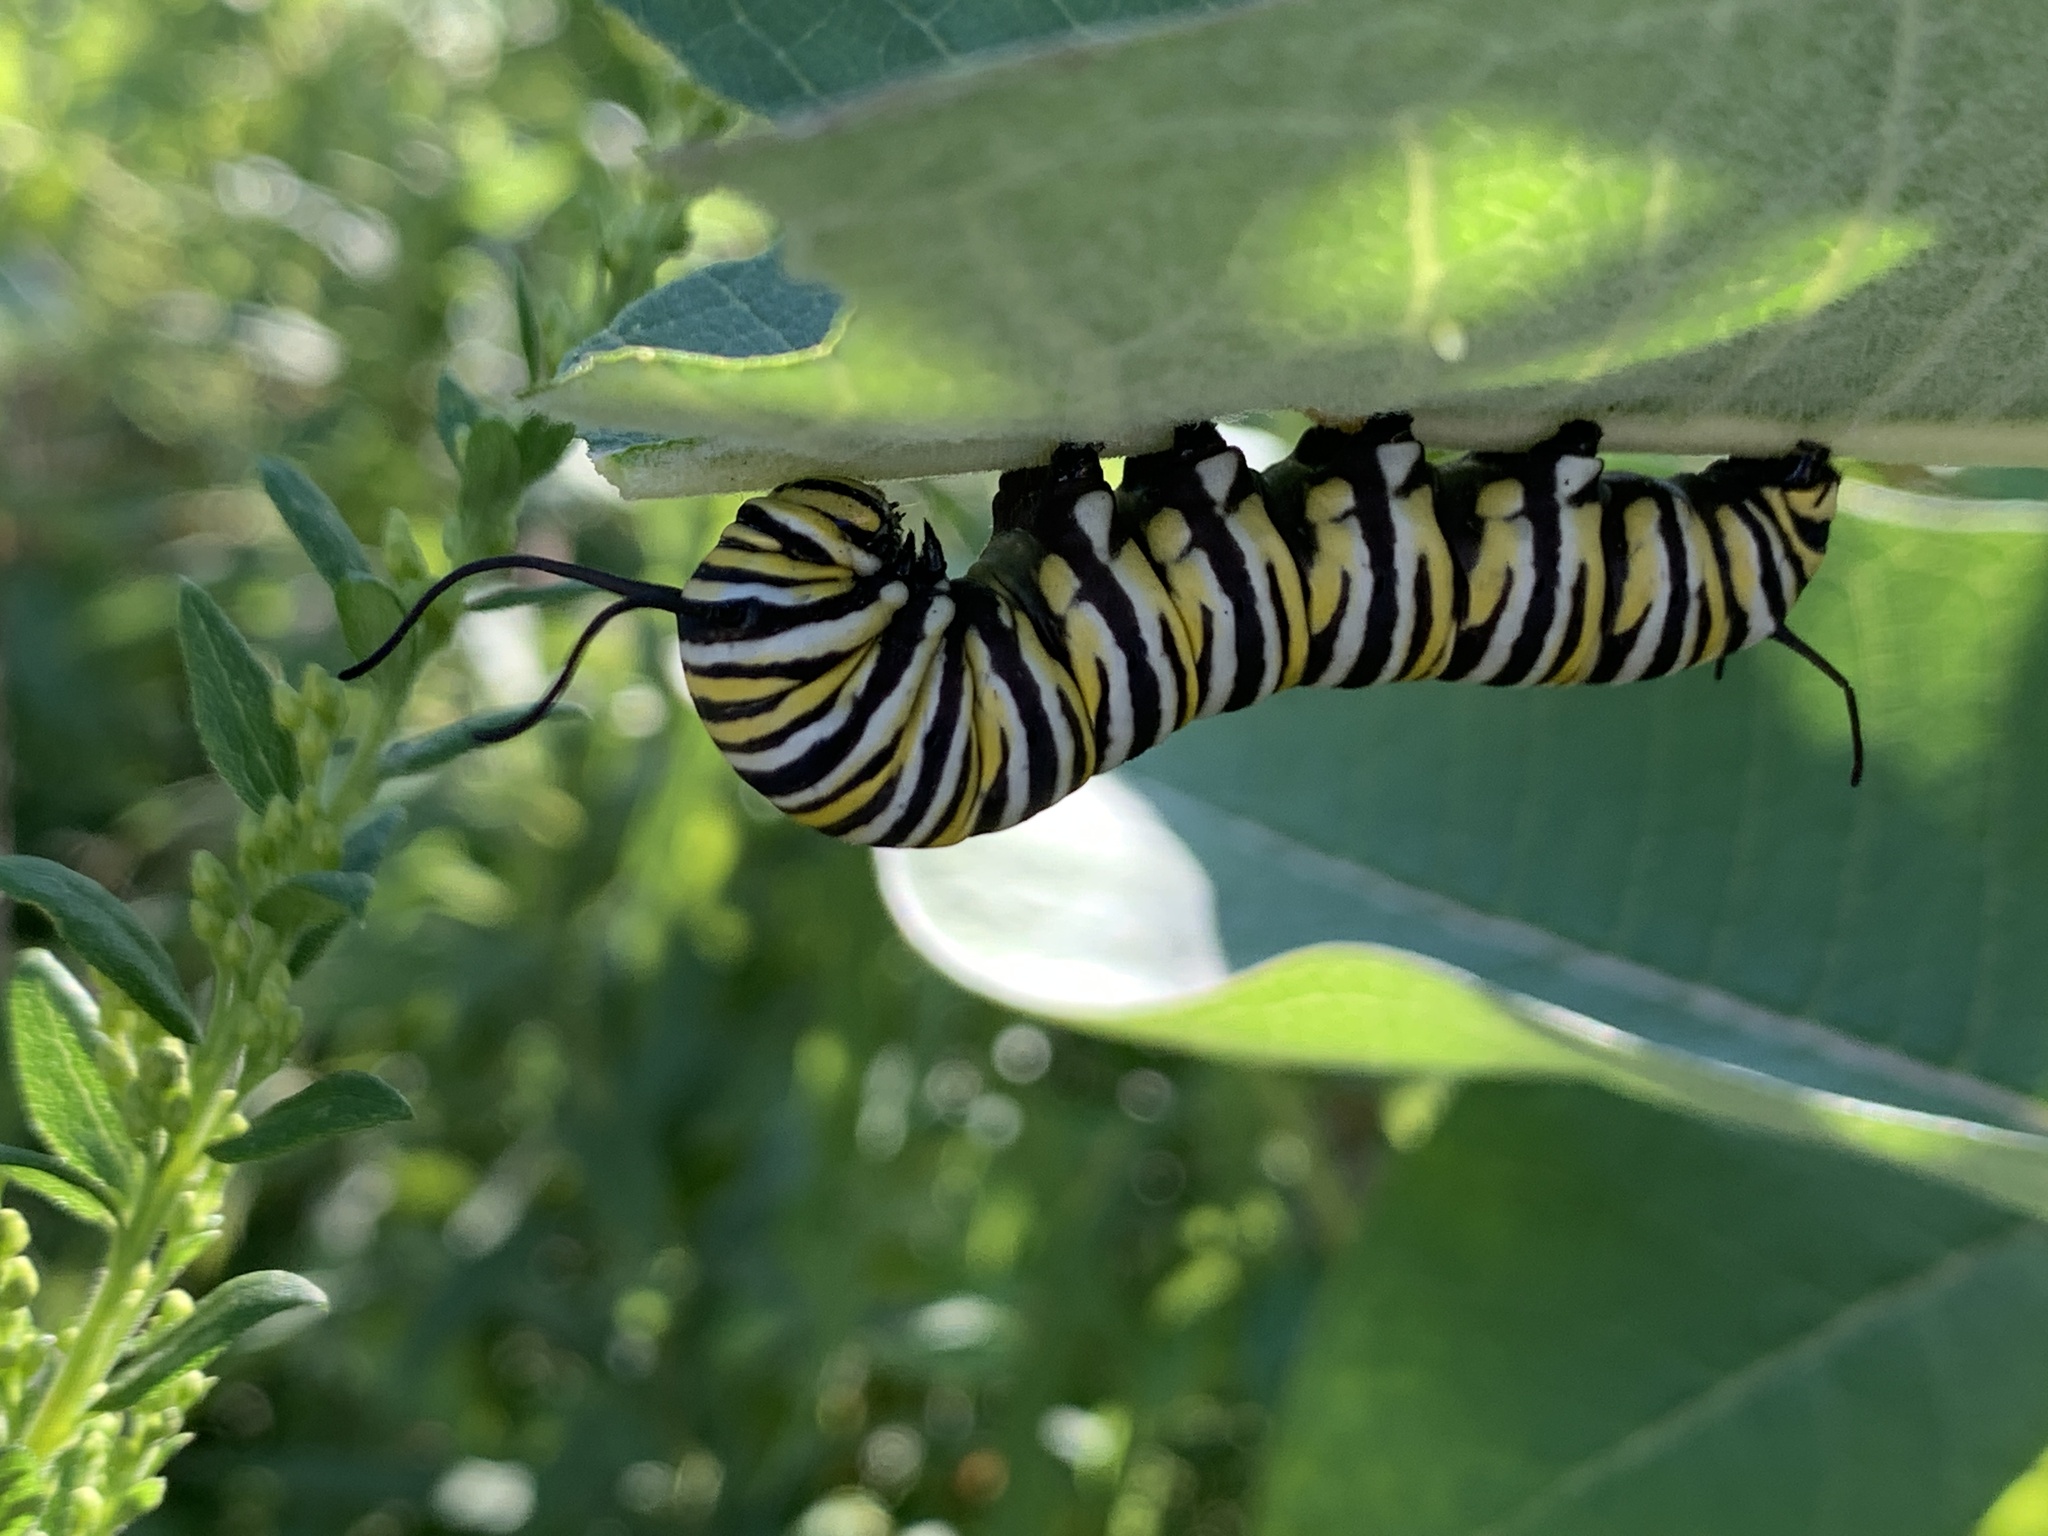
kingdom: Animalia
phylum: Arthropoda
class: Insecta
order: Lepidoptera
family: Nymphalidae
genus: Danaus
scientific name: Danaus plexippus
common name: Monarch
